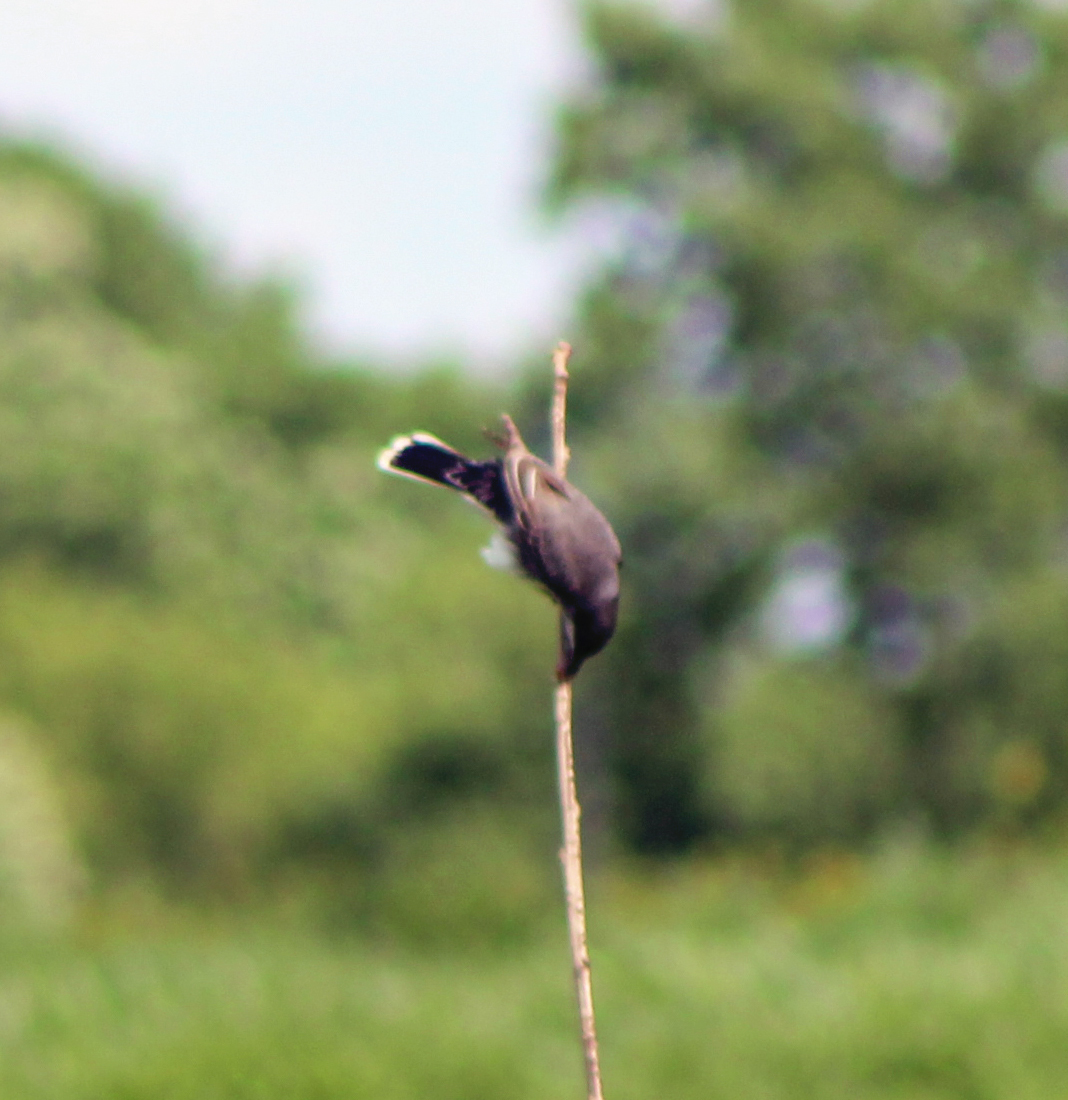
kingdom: Animalia
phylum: Chordata
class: Aves
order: Passeriformes
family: Tyrannidae
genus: Tyrannus
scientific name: Tyrannus tyrannus
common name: Eastern kingbird
